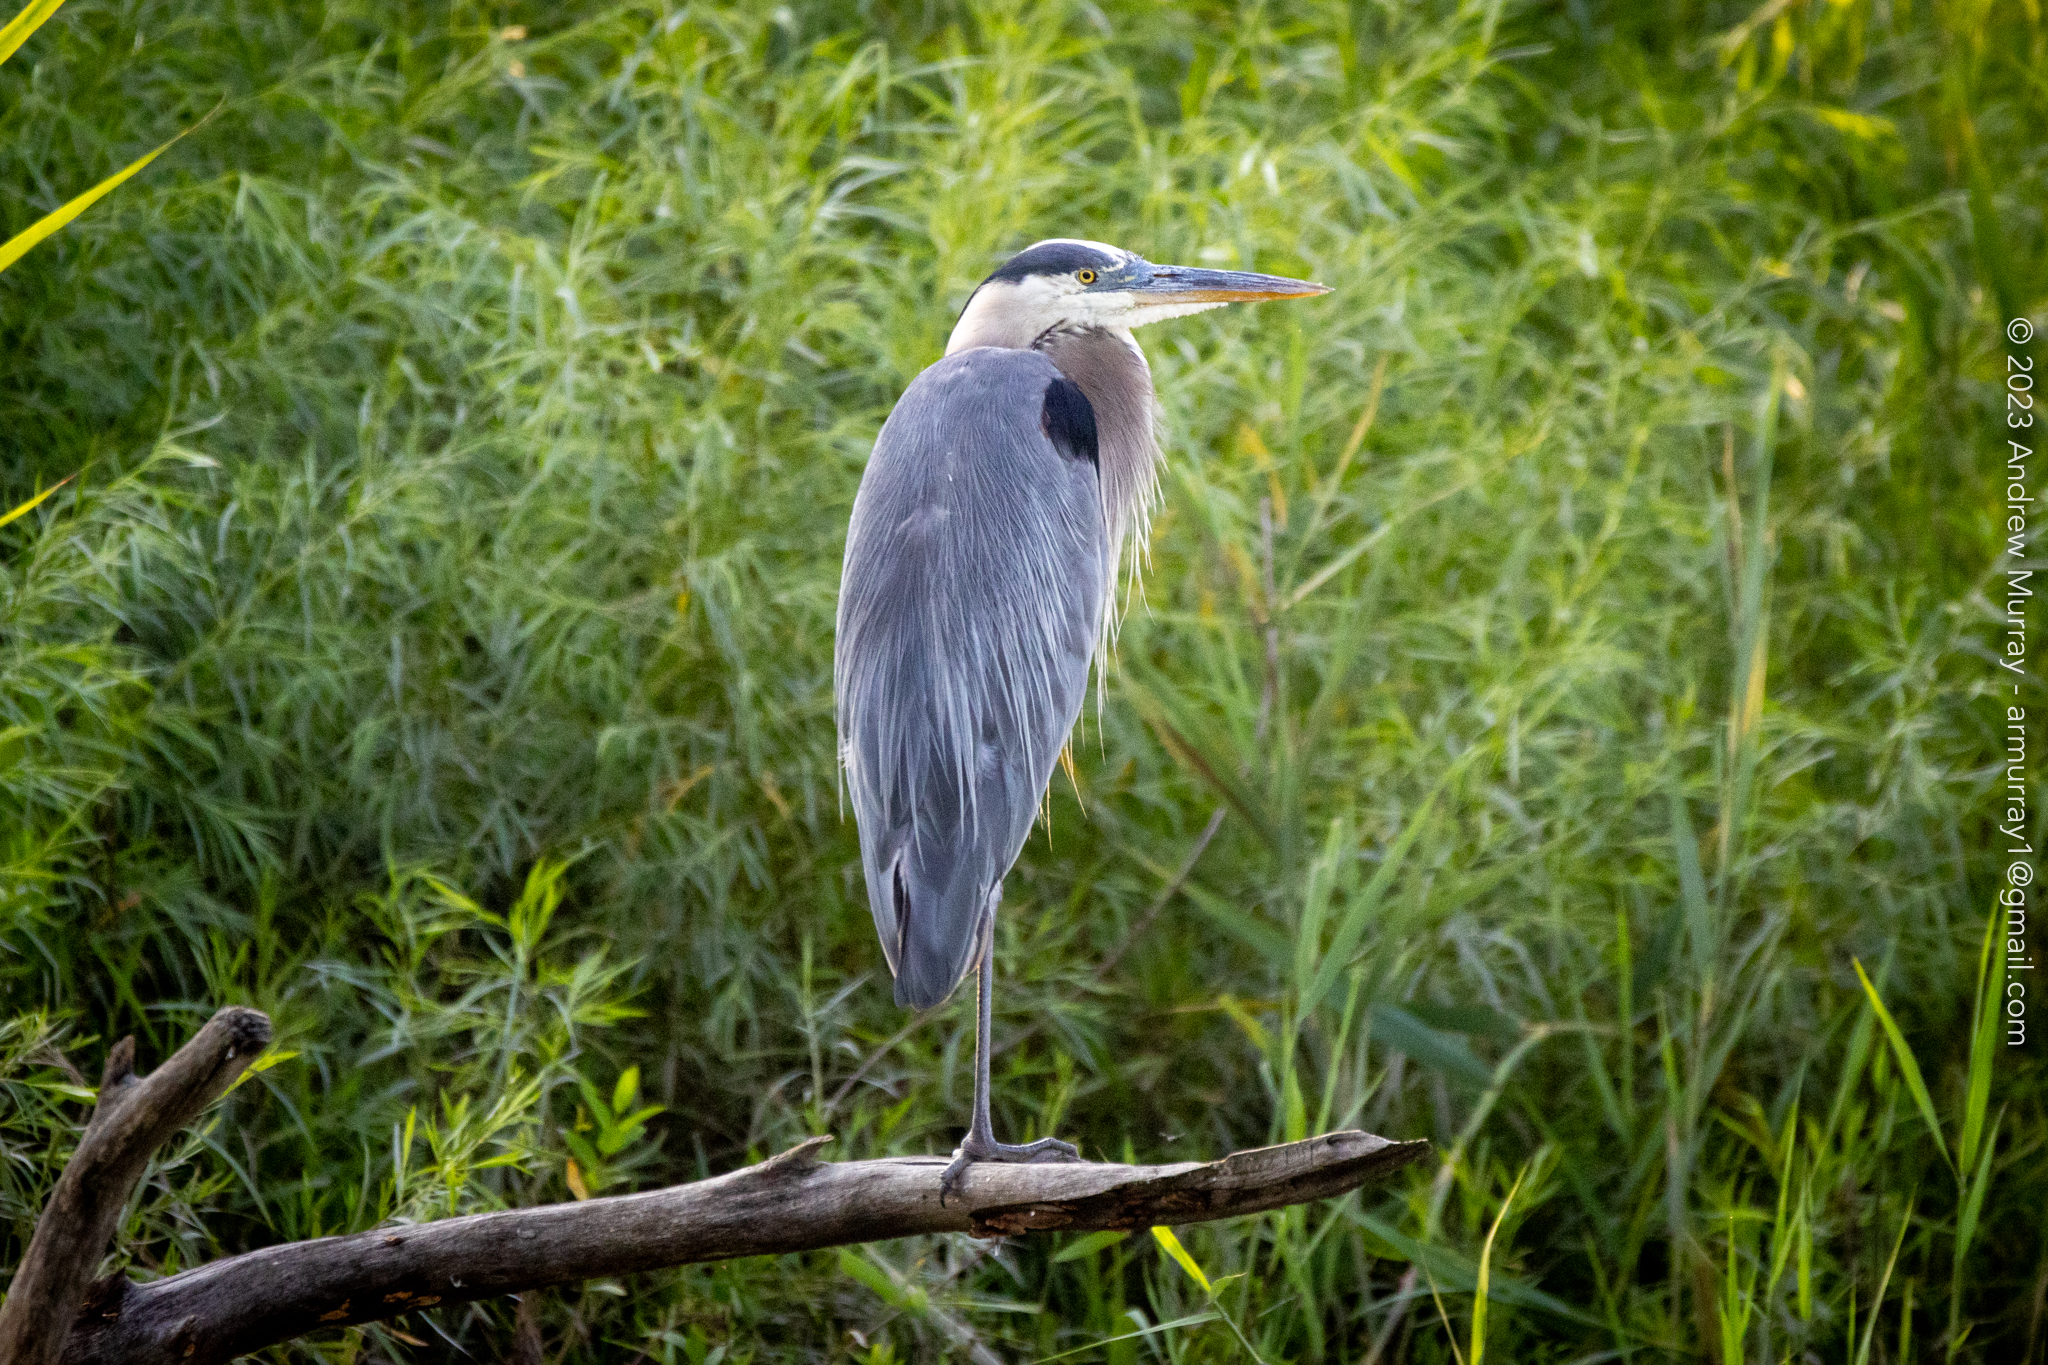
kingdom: Animalia
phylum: Chordata
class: Aves
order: Pelecaniformes
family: Ardeidae
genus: Ardea
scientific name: Ardea herodias
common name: Great blue heron
